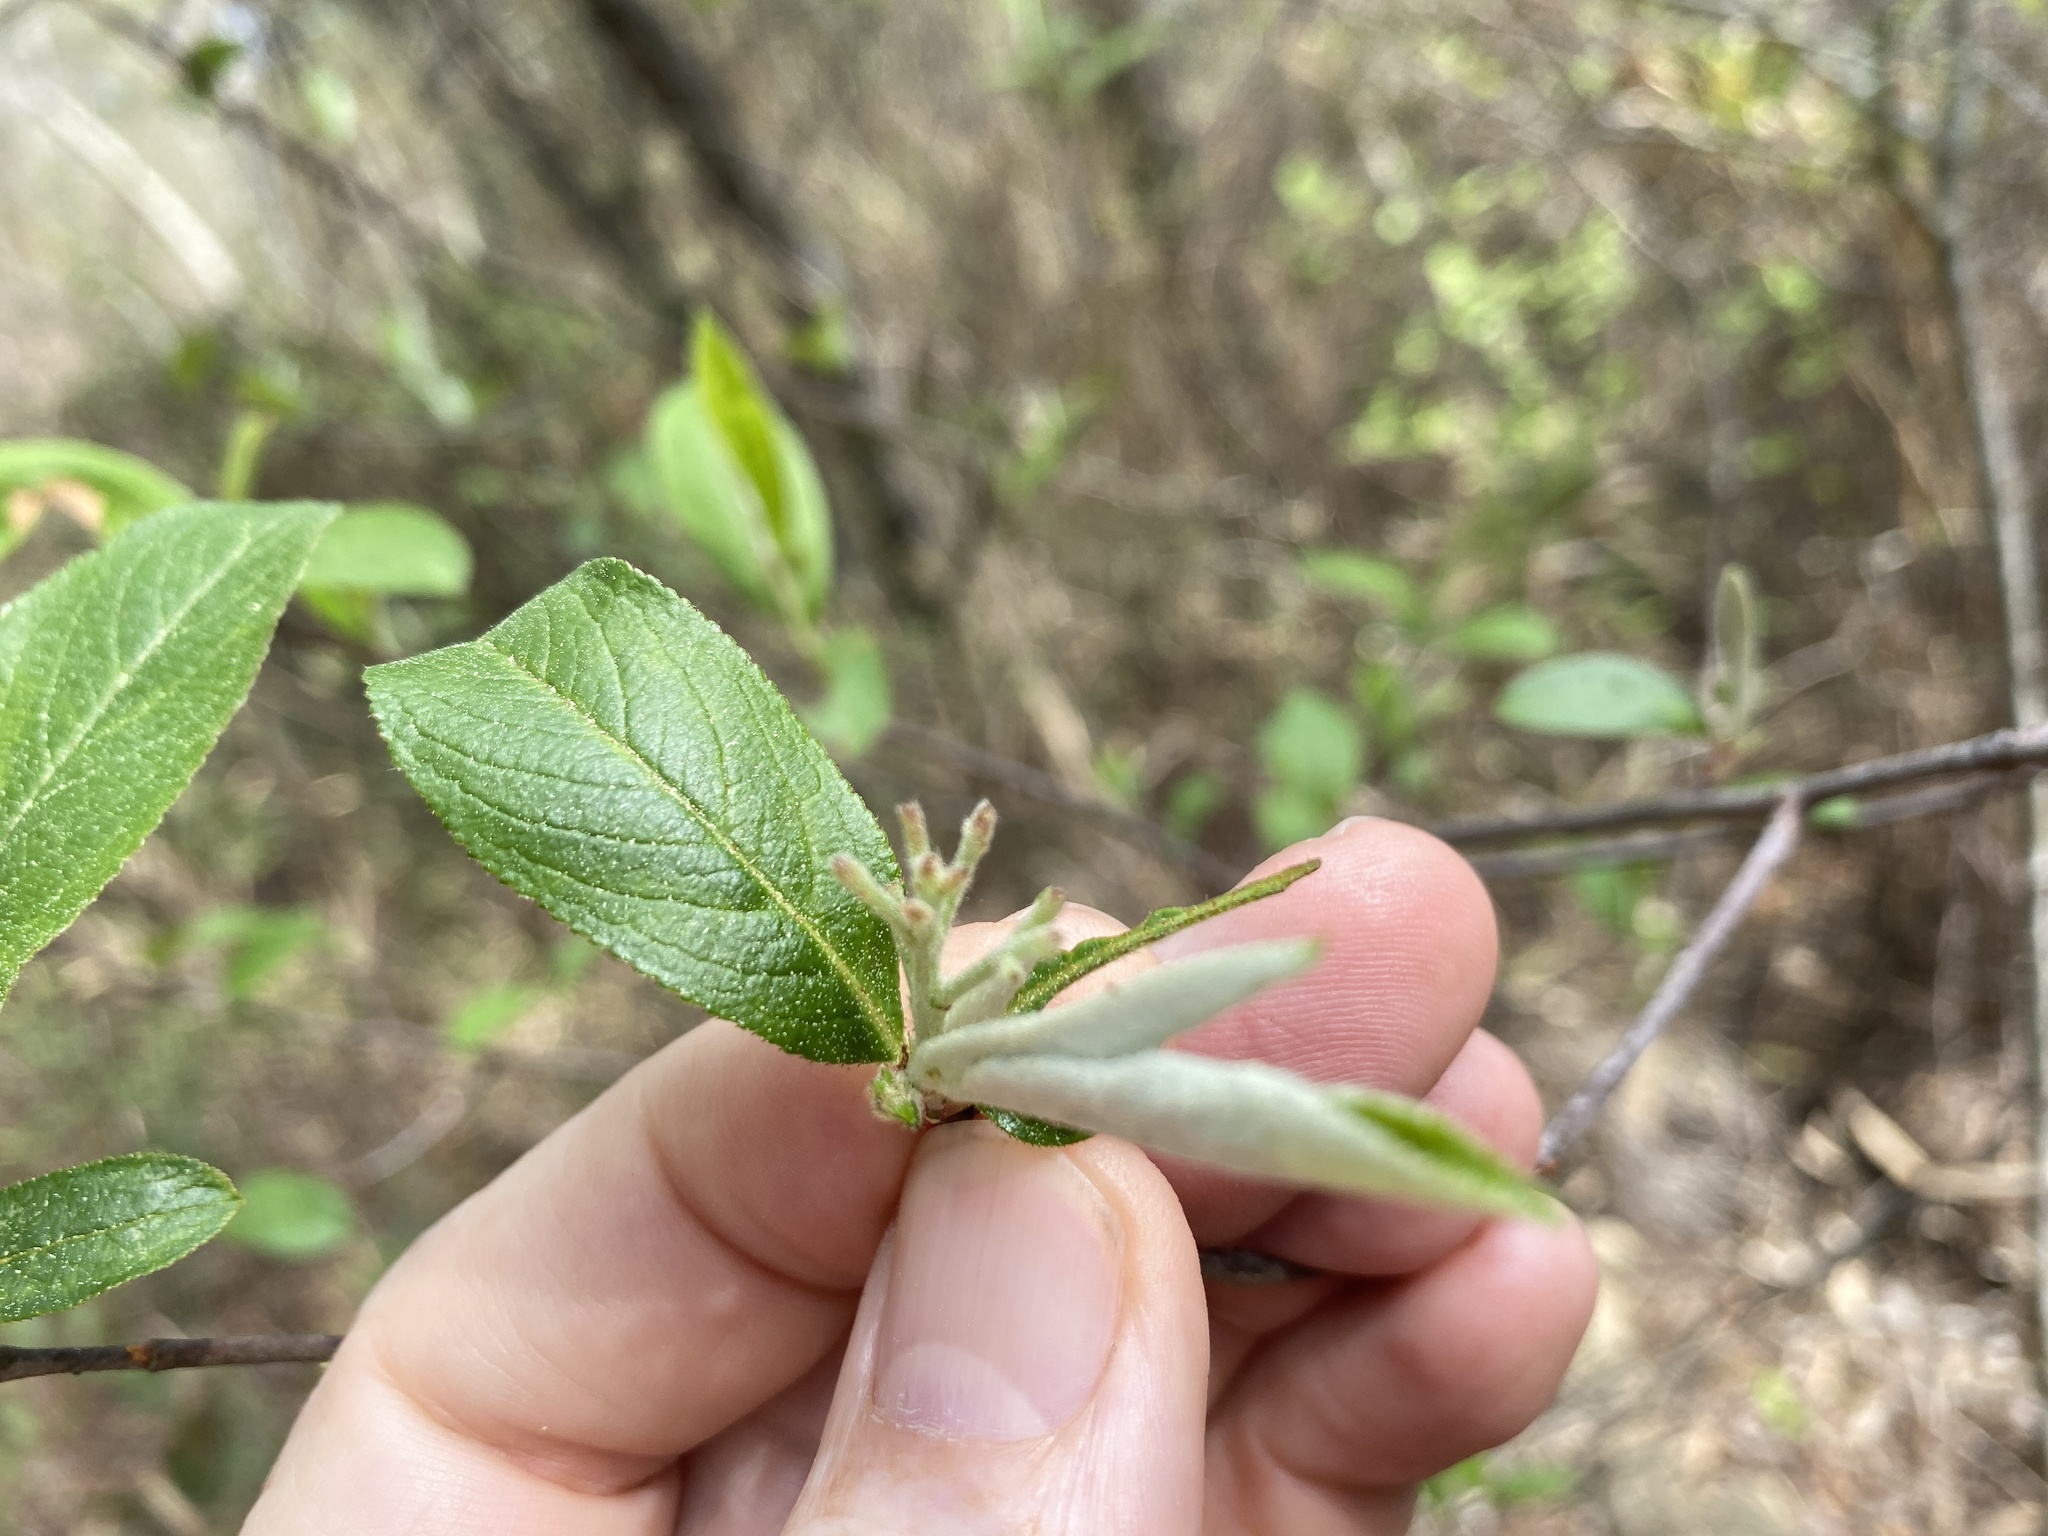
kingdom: Plantae
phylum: Tracheophyta
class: Magnoliopsida
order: Rosales
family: Rosaceae
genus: Aronia
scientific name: Aronia arbutifolia
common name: Red chokeberry
